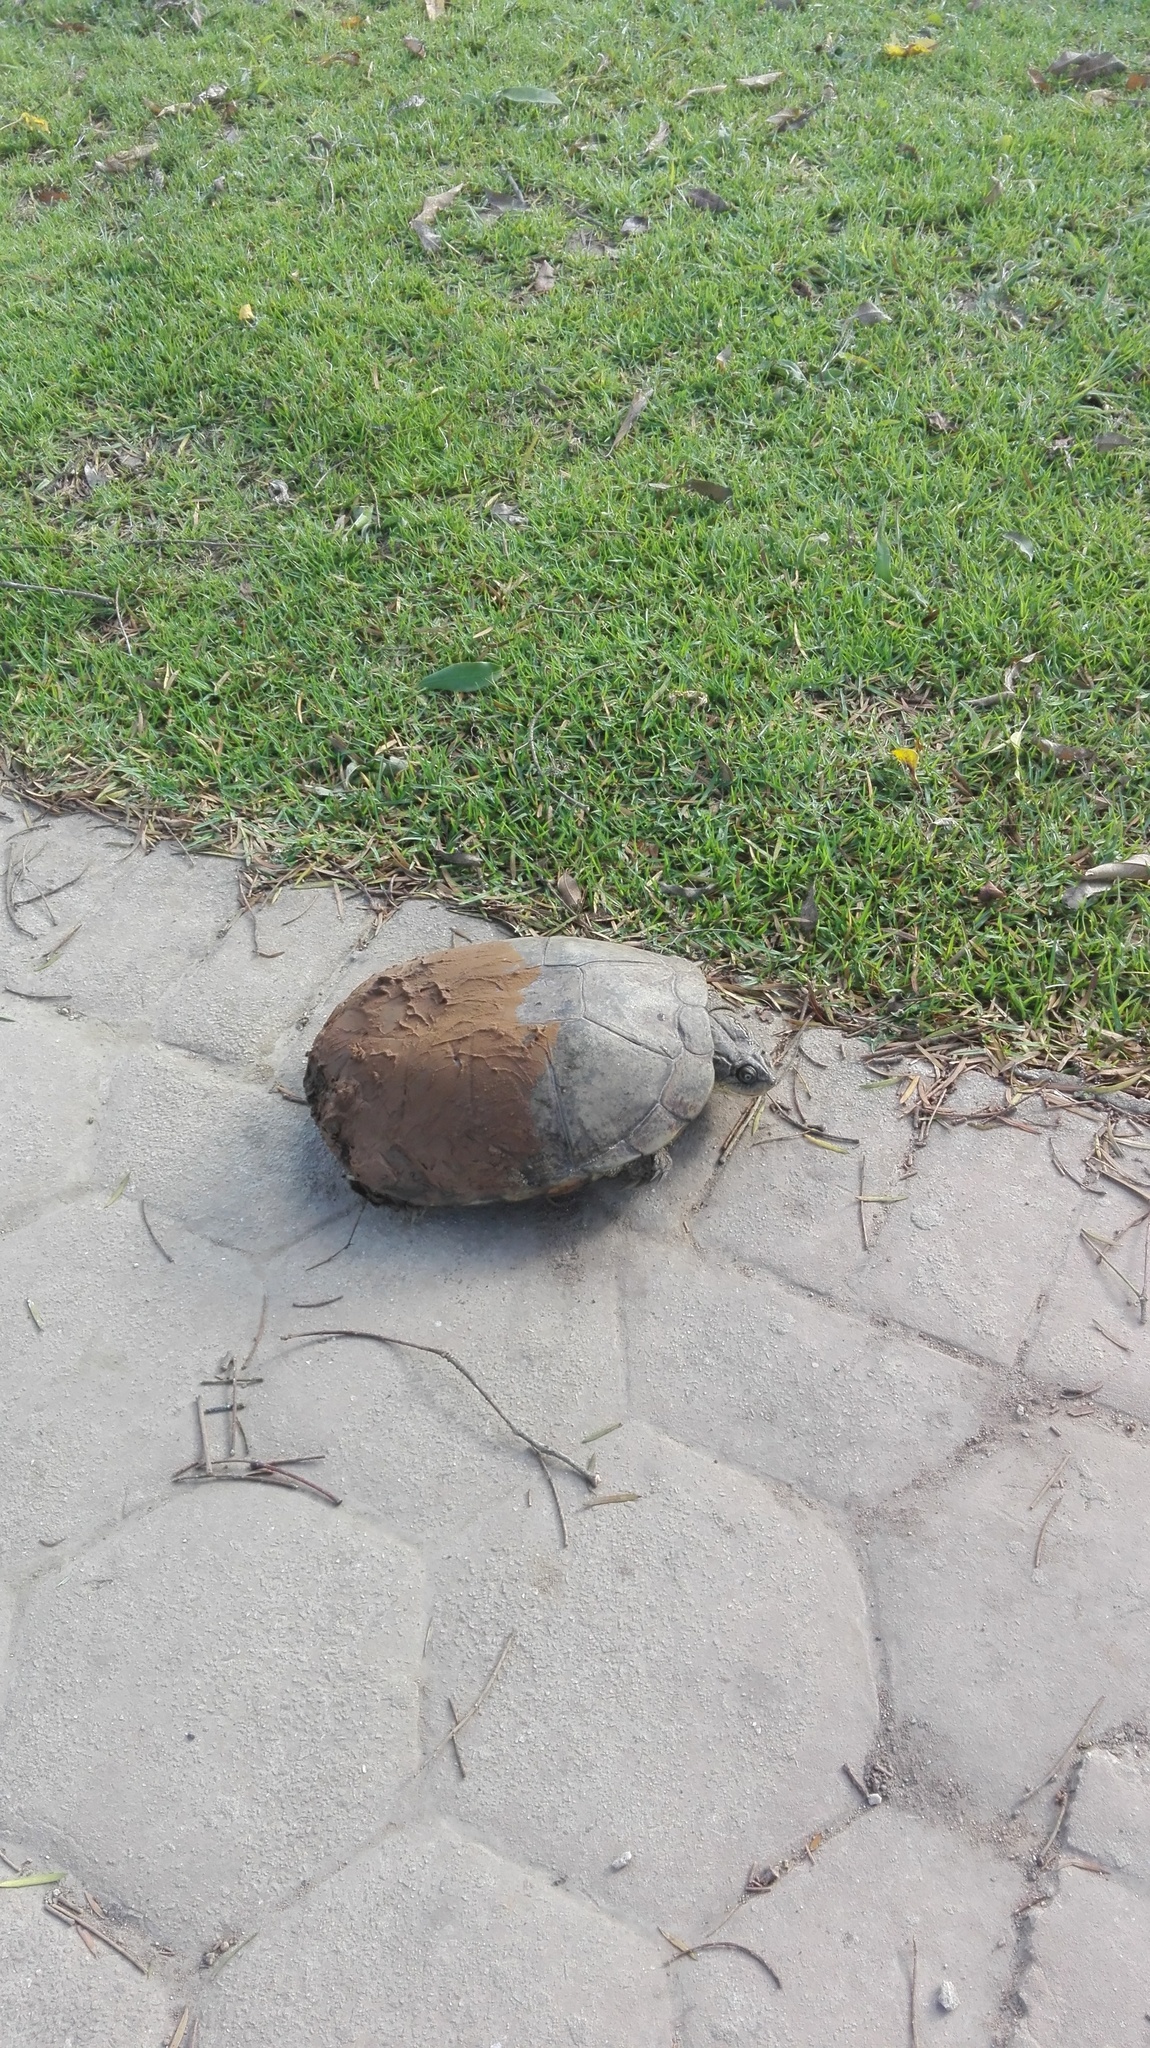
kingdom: Animalia
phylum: Chordata
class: Testudines
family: Pelomedusidae
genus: Pelomedusa
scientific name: Pelomedusa galeata
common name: South african helmeted terrapin
